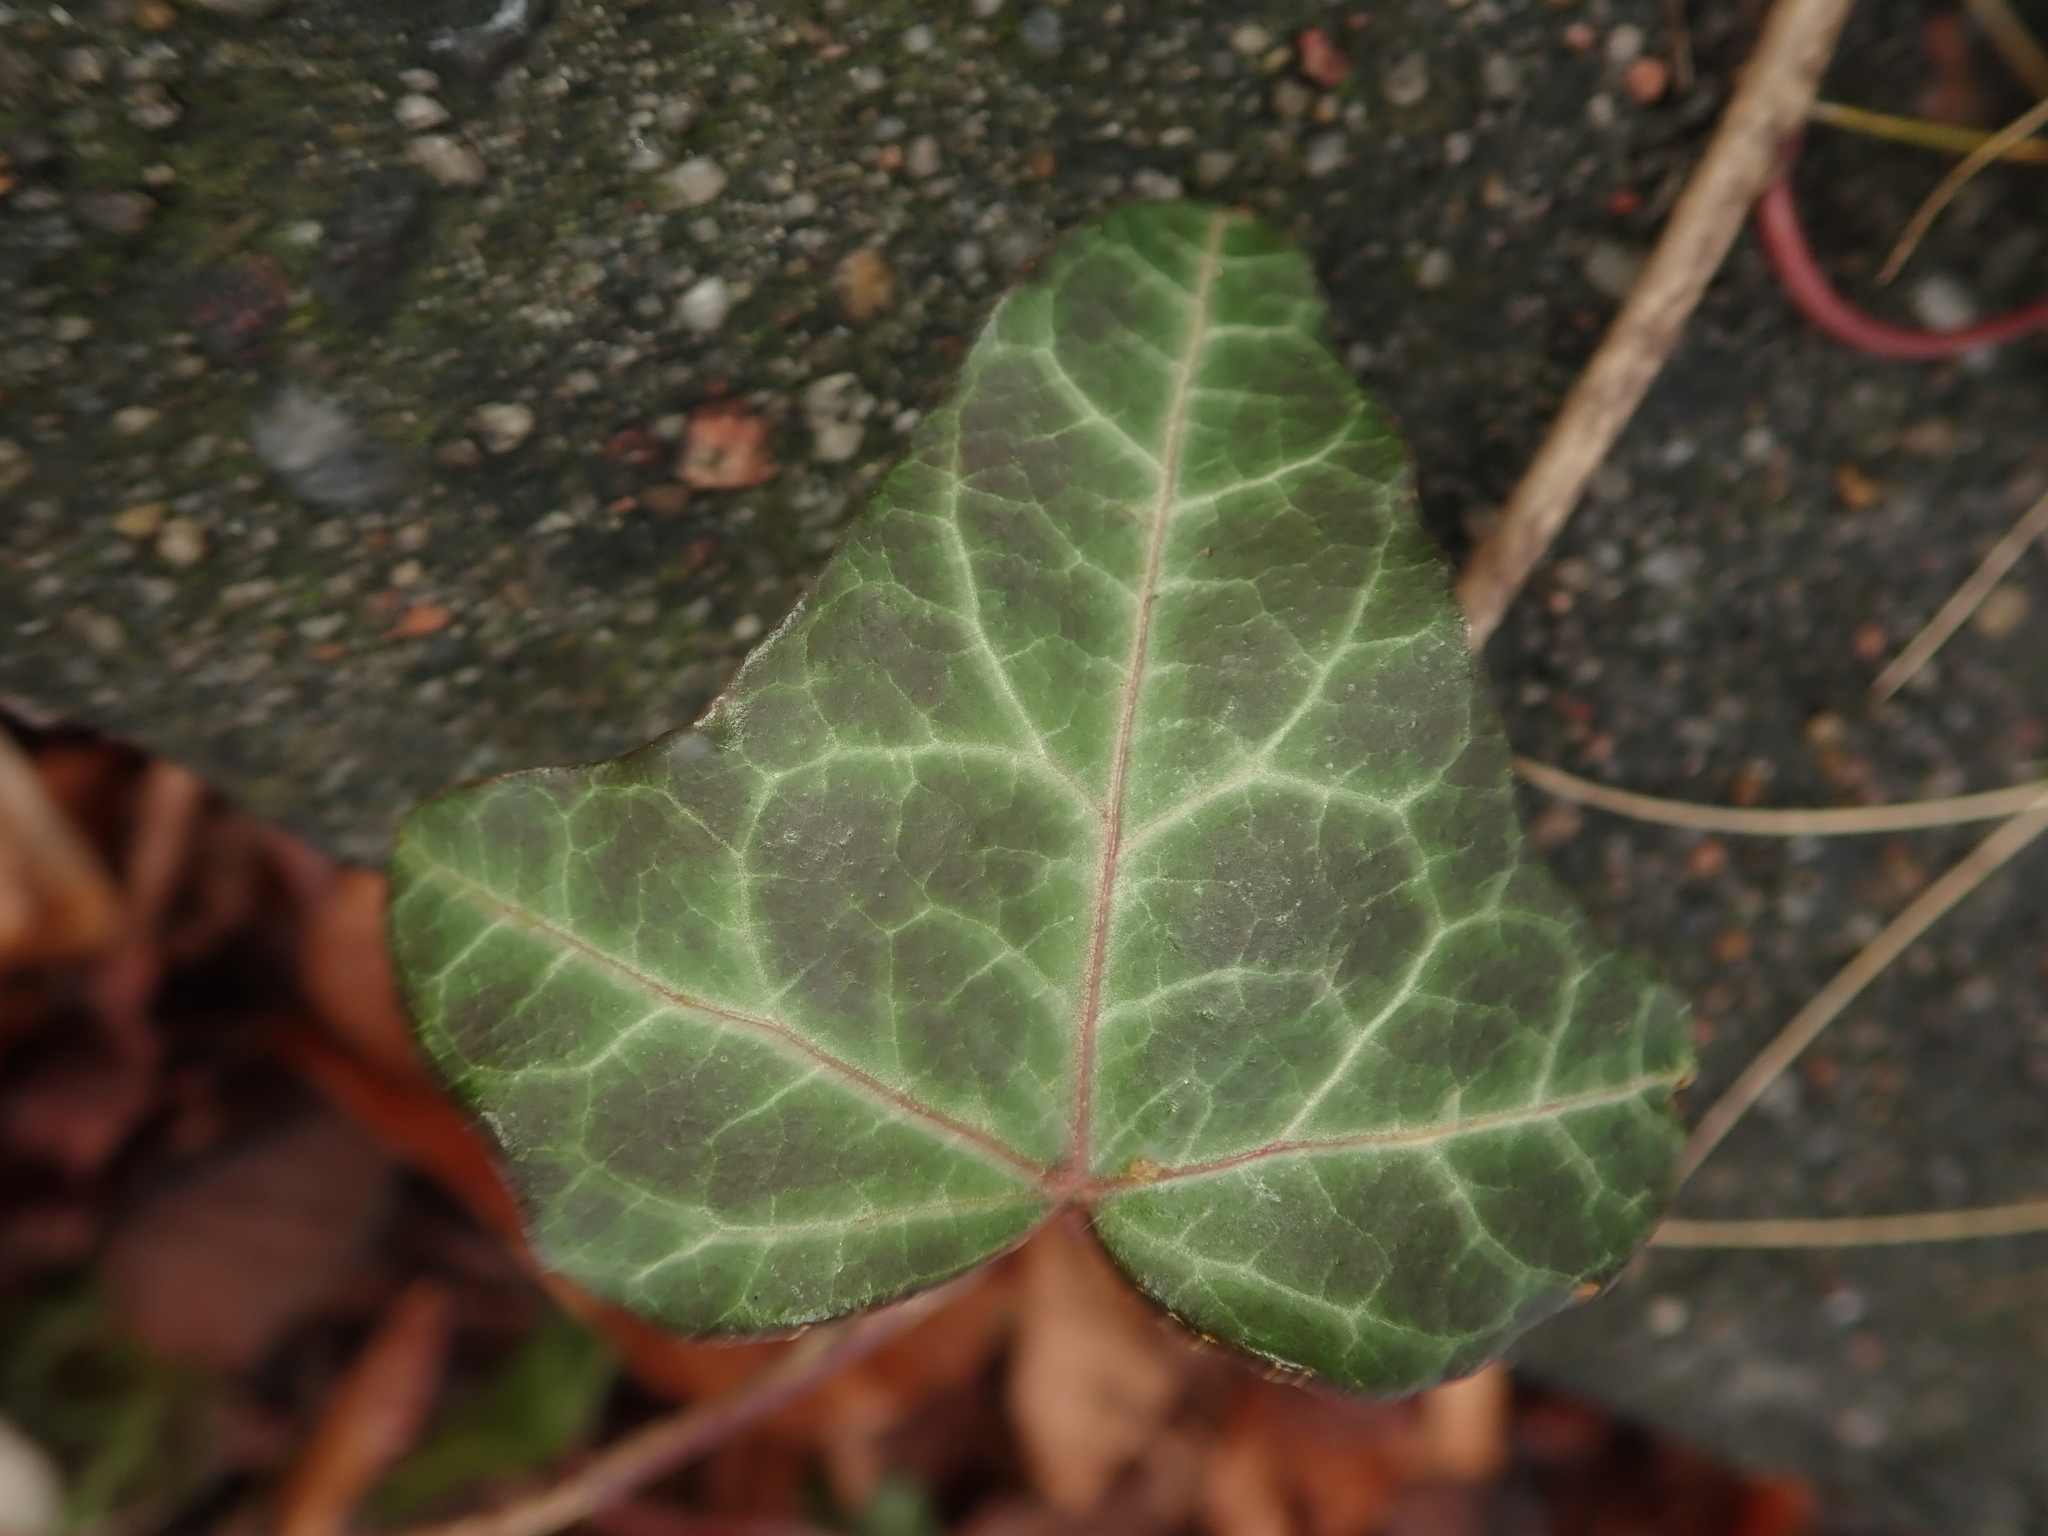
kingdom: Plantae
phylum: Tracheophyta
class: Magnoliopsida
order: Apiales
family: Araliaceae
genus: Hedera
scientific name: Hedera helix
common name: Ivy
